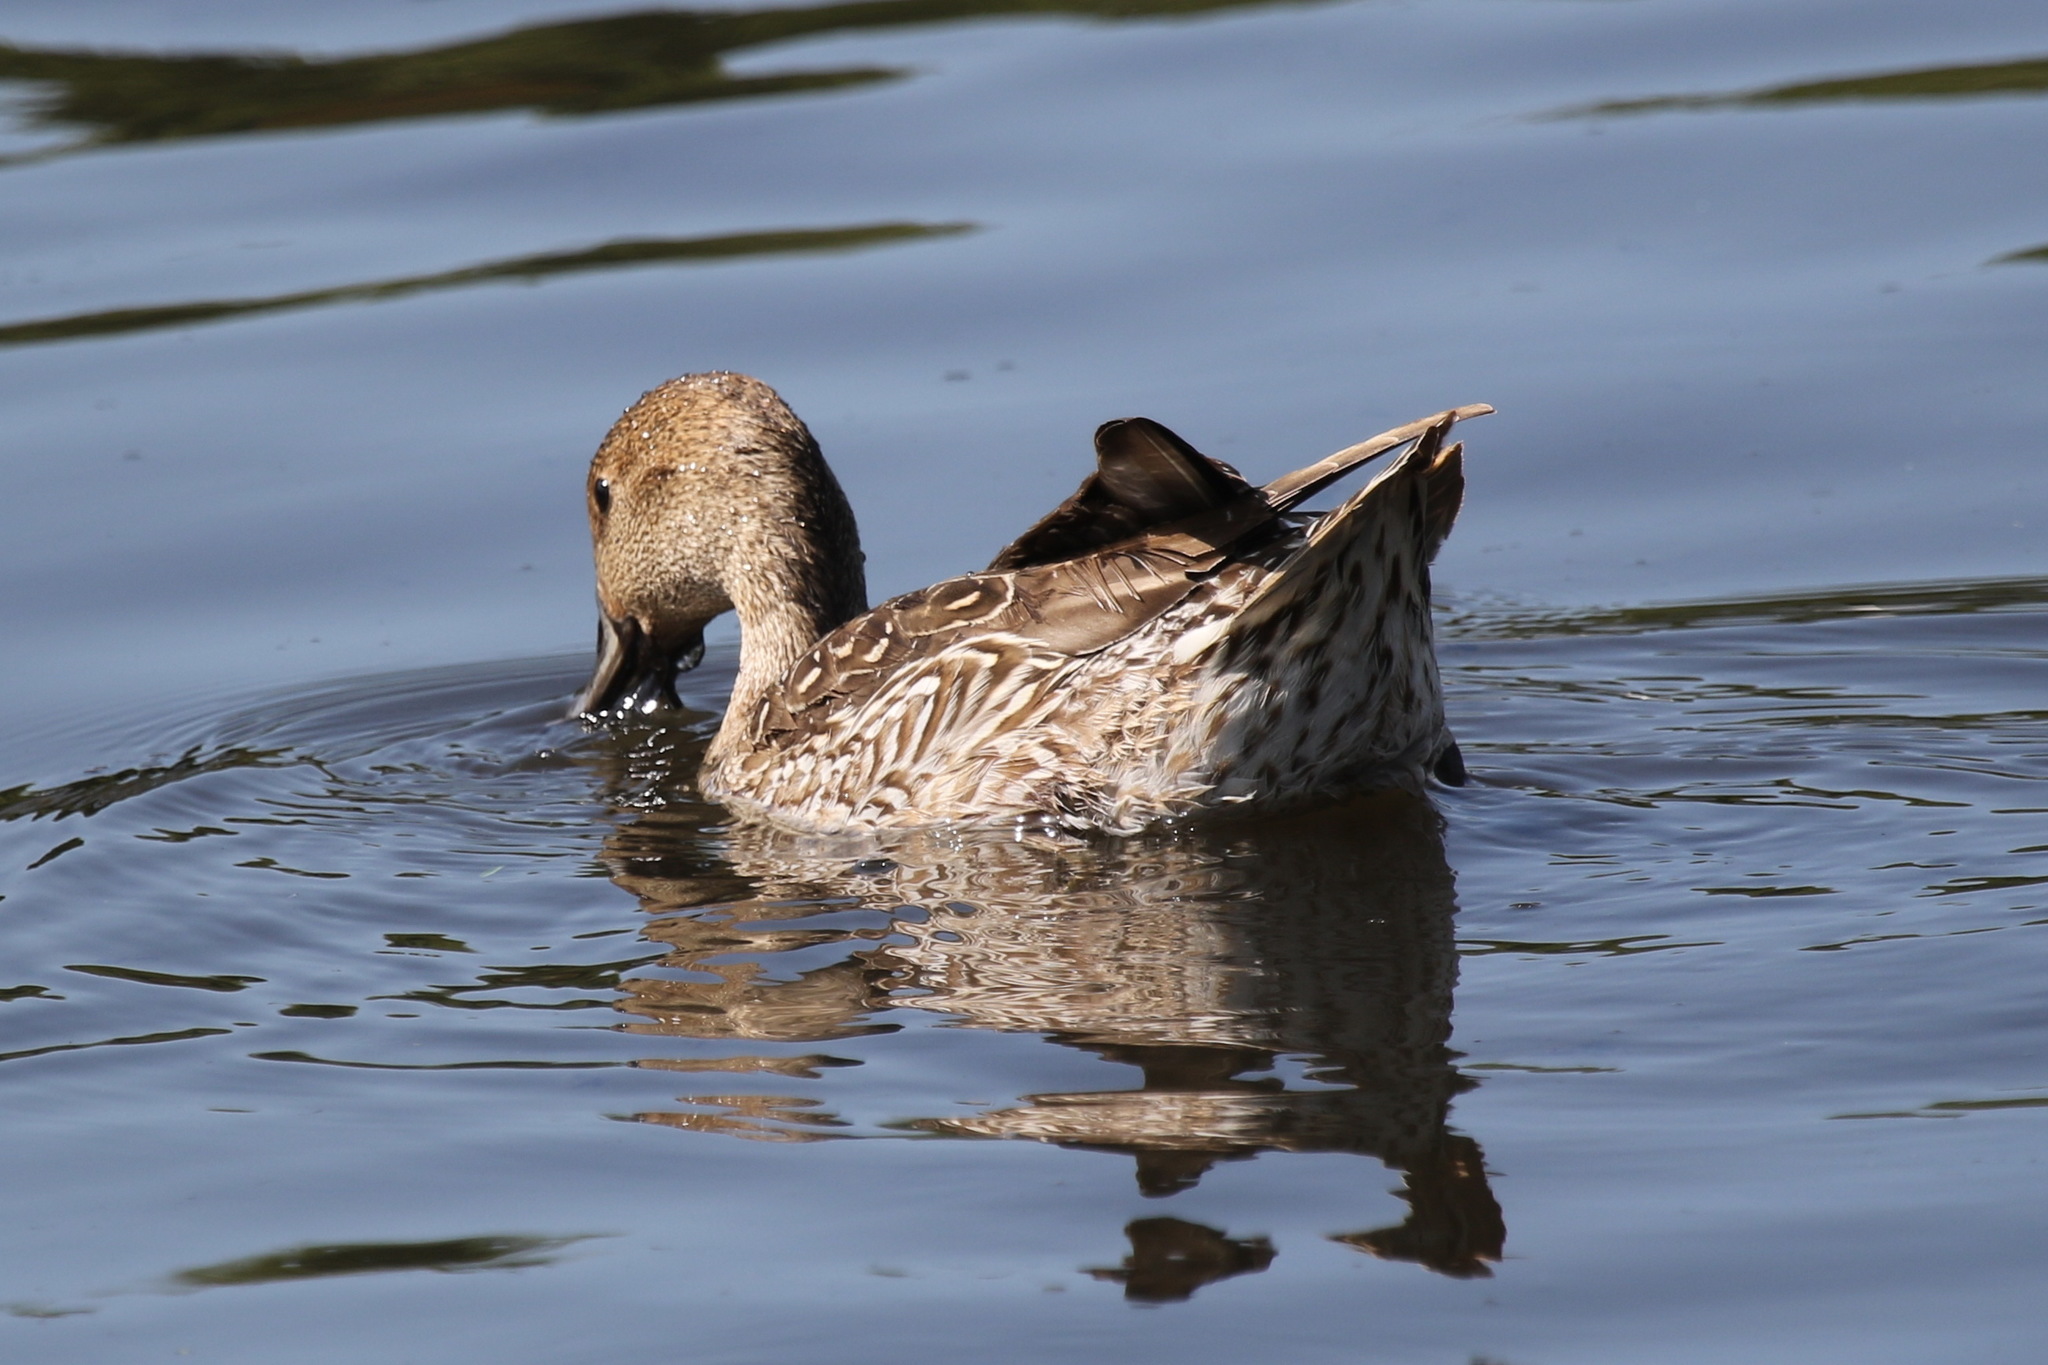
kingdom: Animalia
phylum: Chordata
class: Aves
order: Anseriformes
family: Anatidae
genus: Anas
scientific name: Anas acuta
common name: Northern pintail
